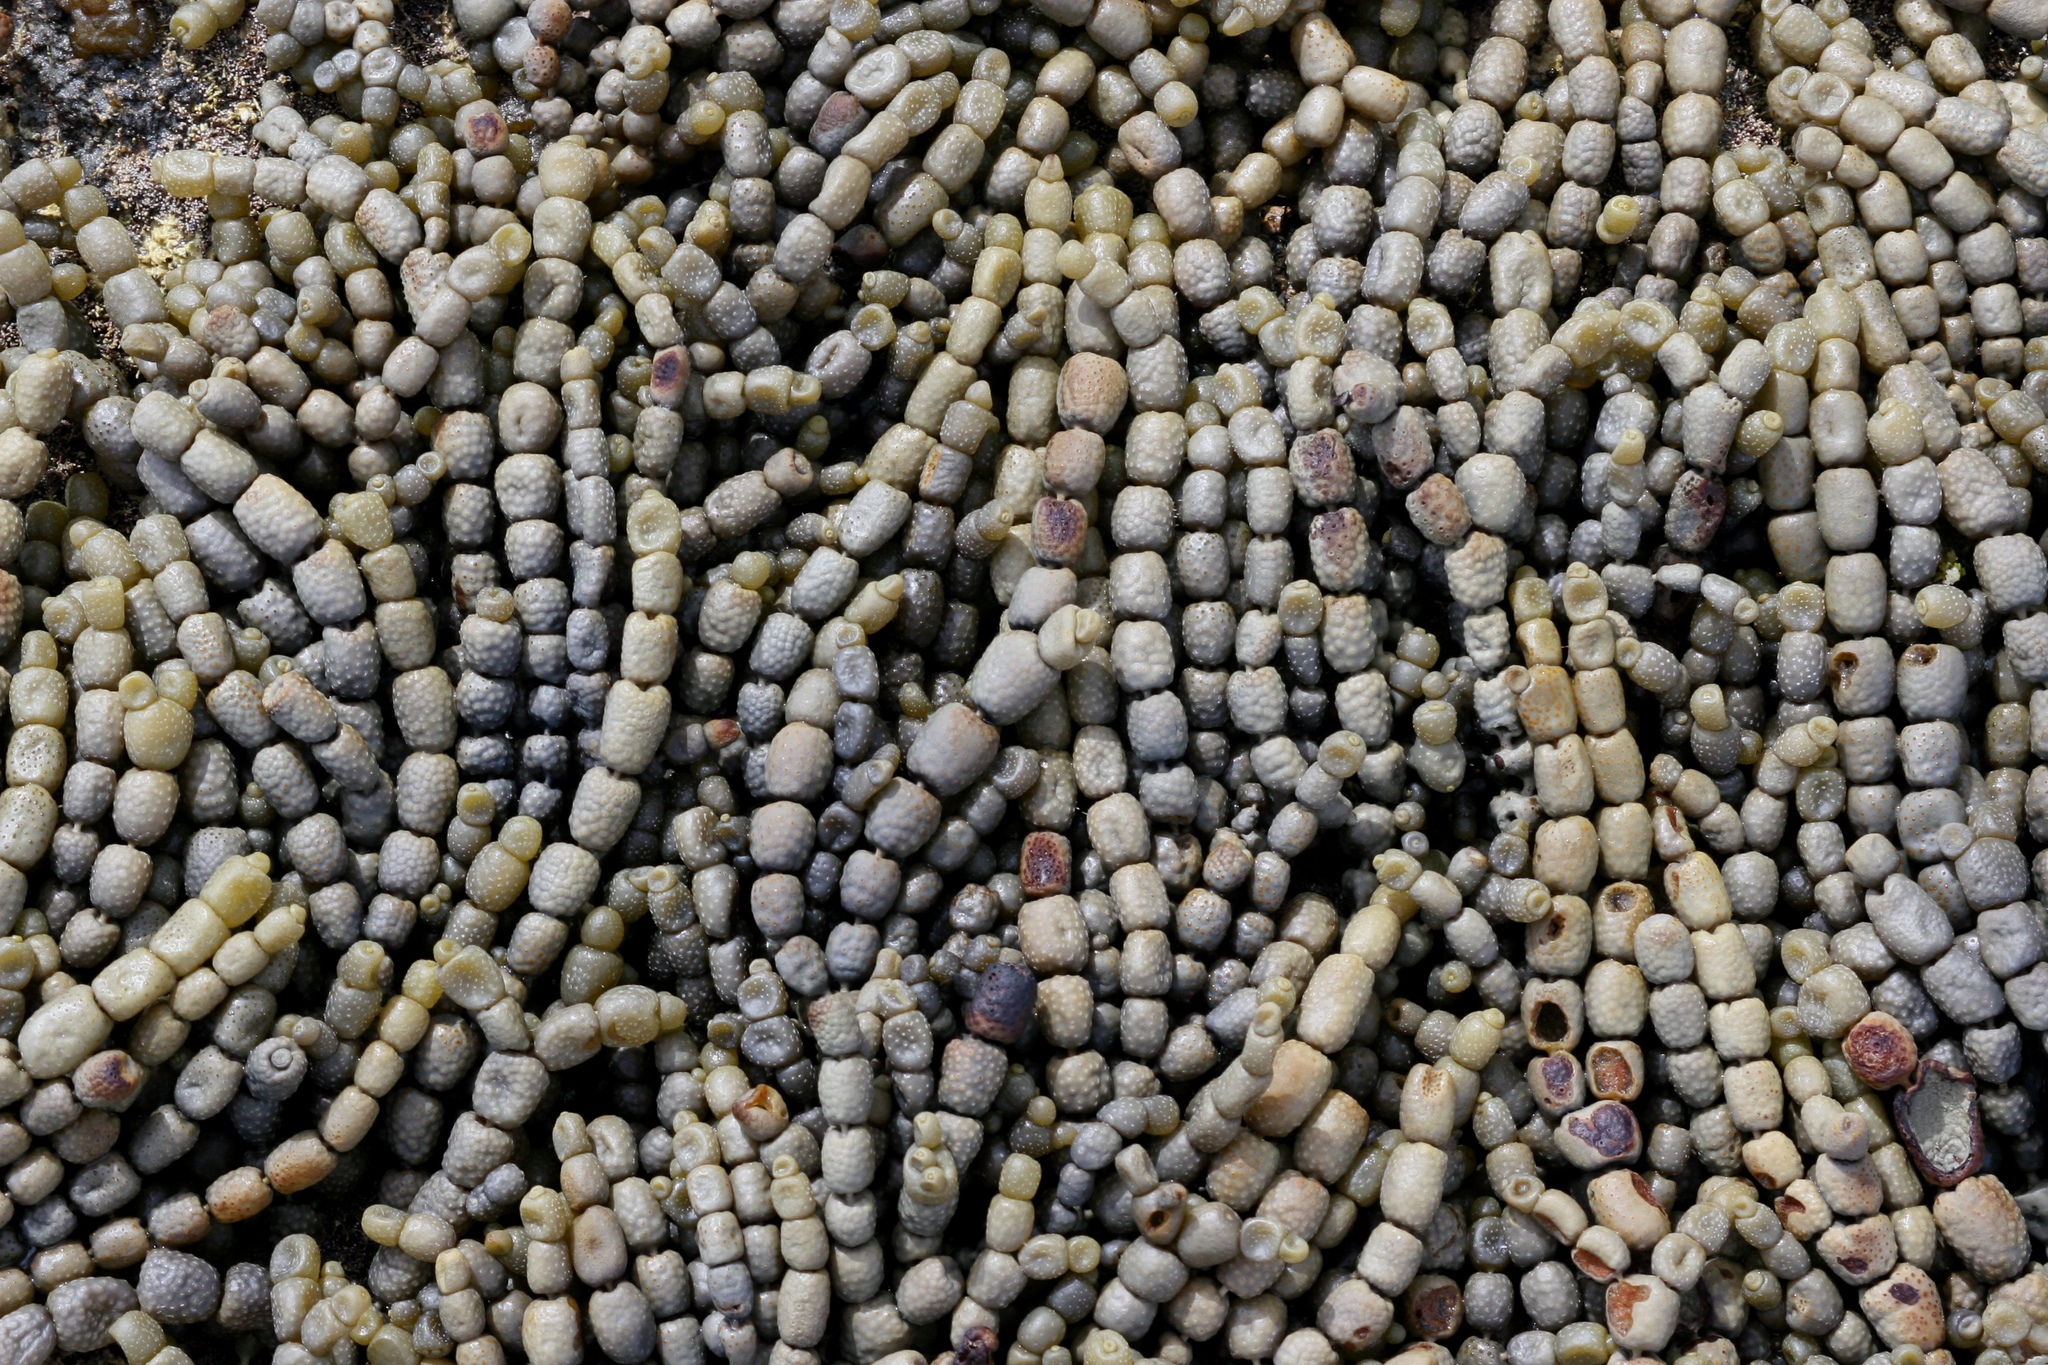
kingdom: Chromista
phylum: Ochrophyta
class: Phaeophyceae
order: Fucales
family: Hormosiraceae
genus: Hormosira
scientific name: Hormosira banksii
